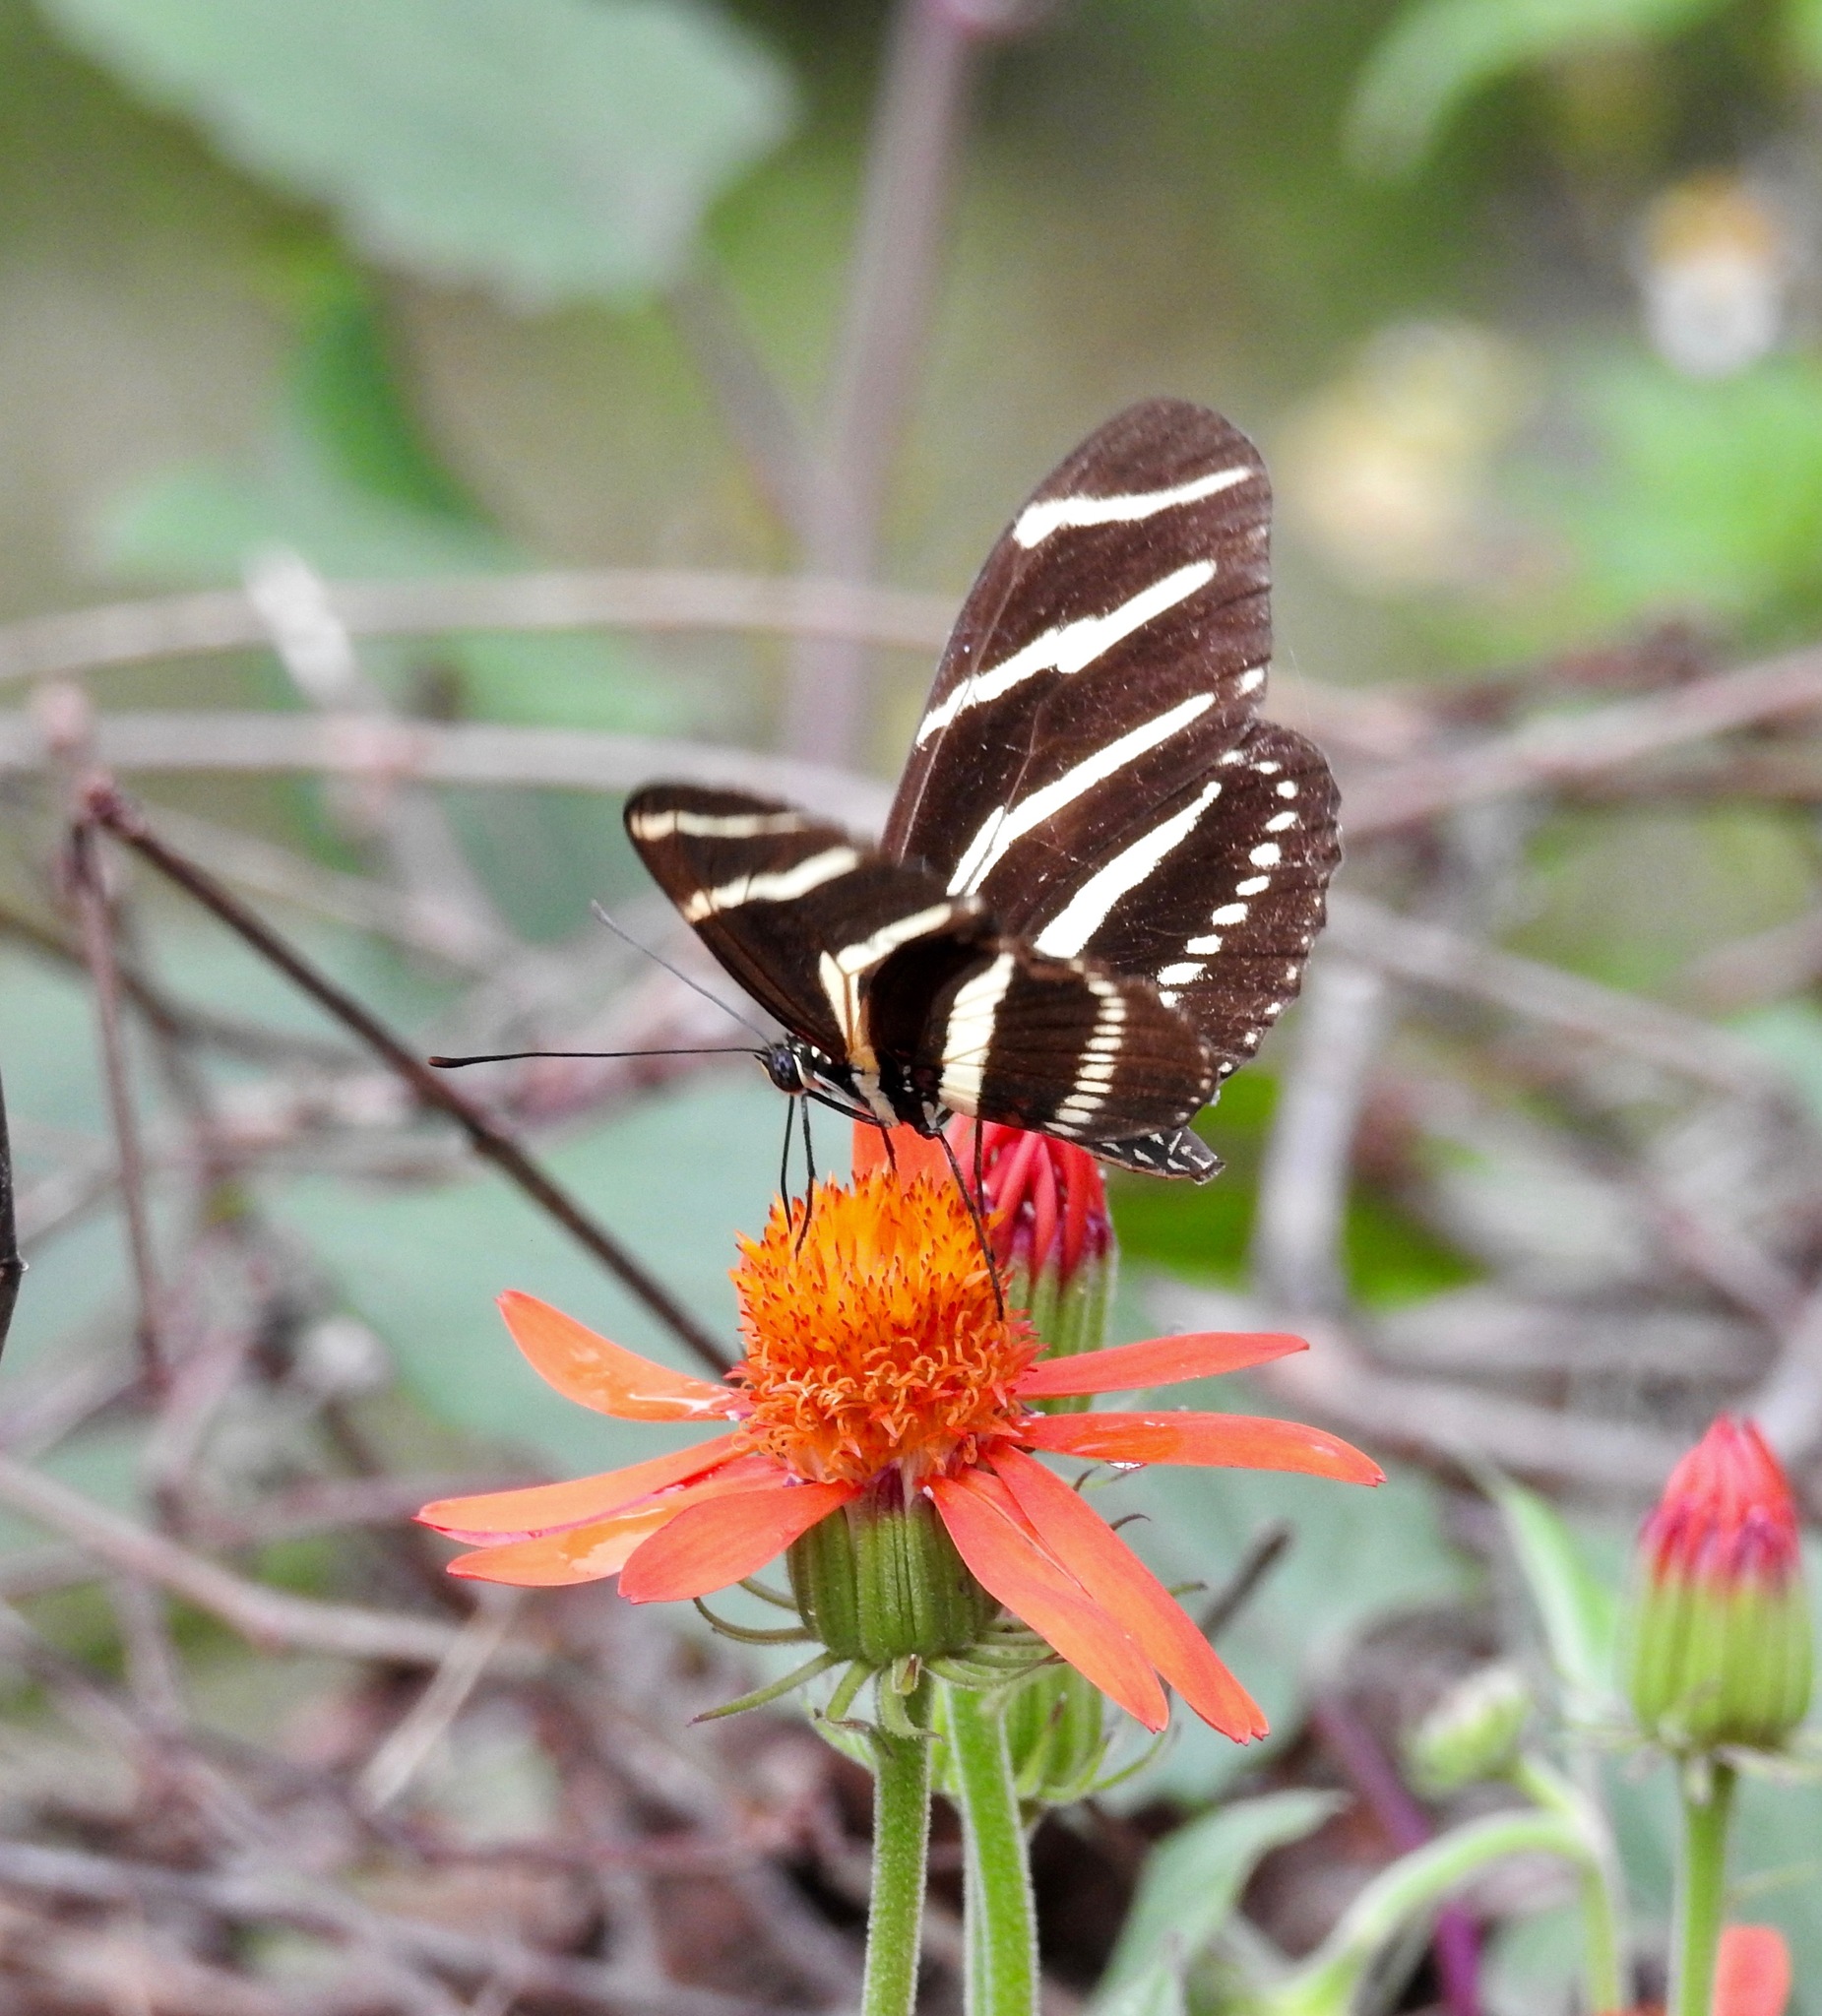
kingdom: Animalia
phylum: Arthropoda
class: Insecta
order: Lepidoptera
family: Nymphalidae
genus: Heliconius
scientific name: Heliconius charithonia
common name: Zebra long wing
